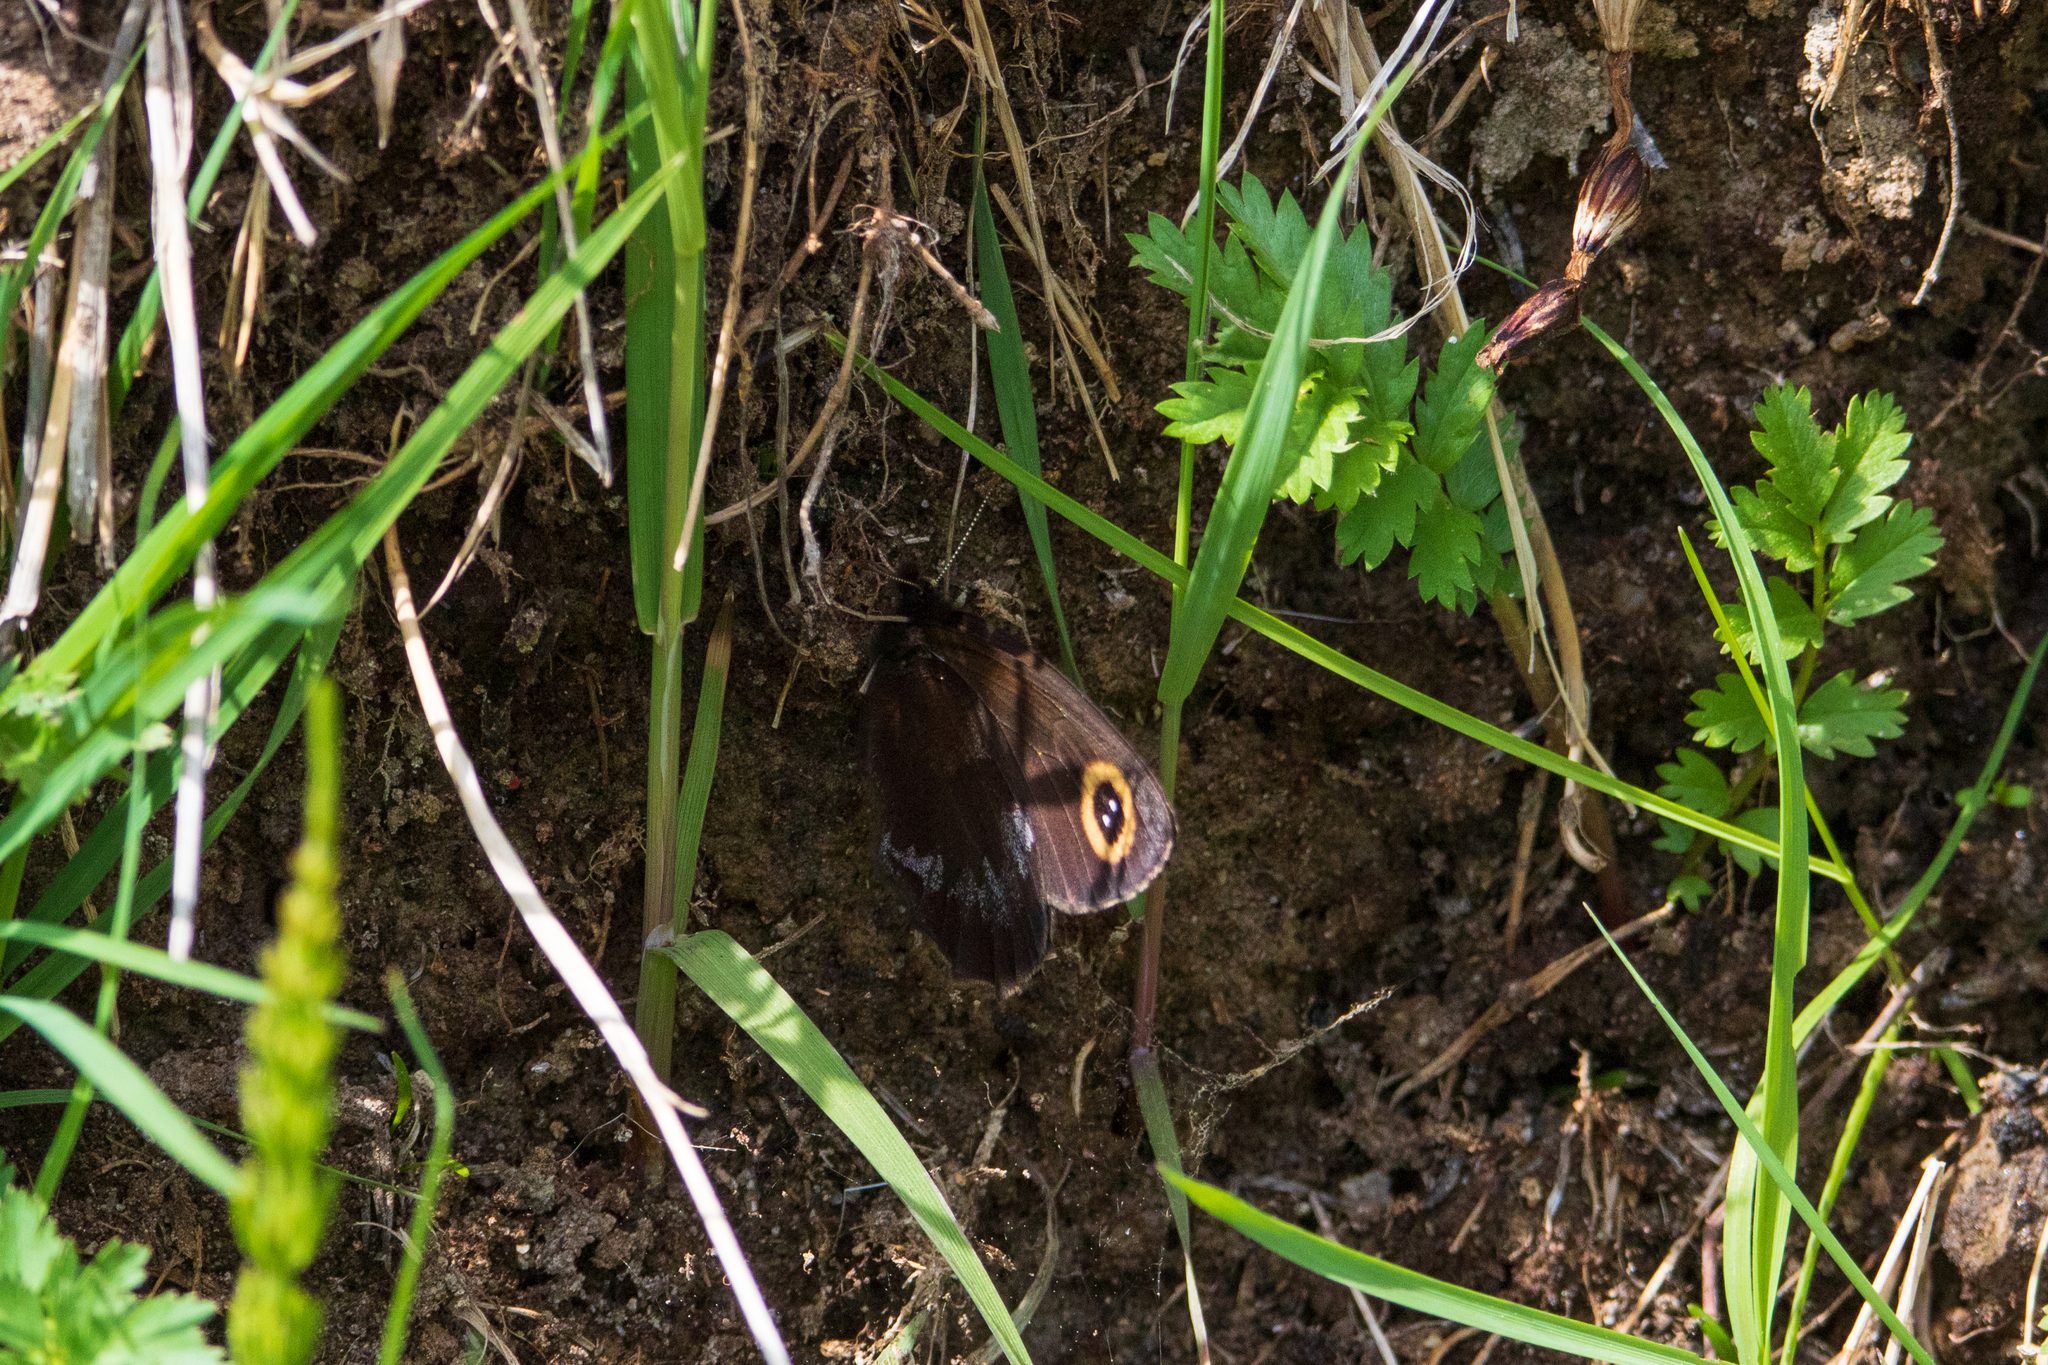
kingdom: Animalia
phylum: Arthropoda
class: Insecta
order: Lepidoptera
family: Nymphalidae
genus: Erebia
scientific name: Erebia cyclopius
